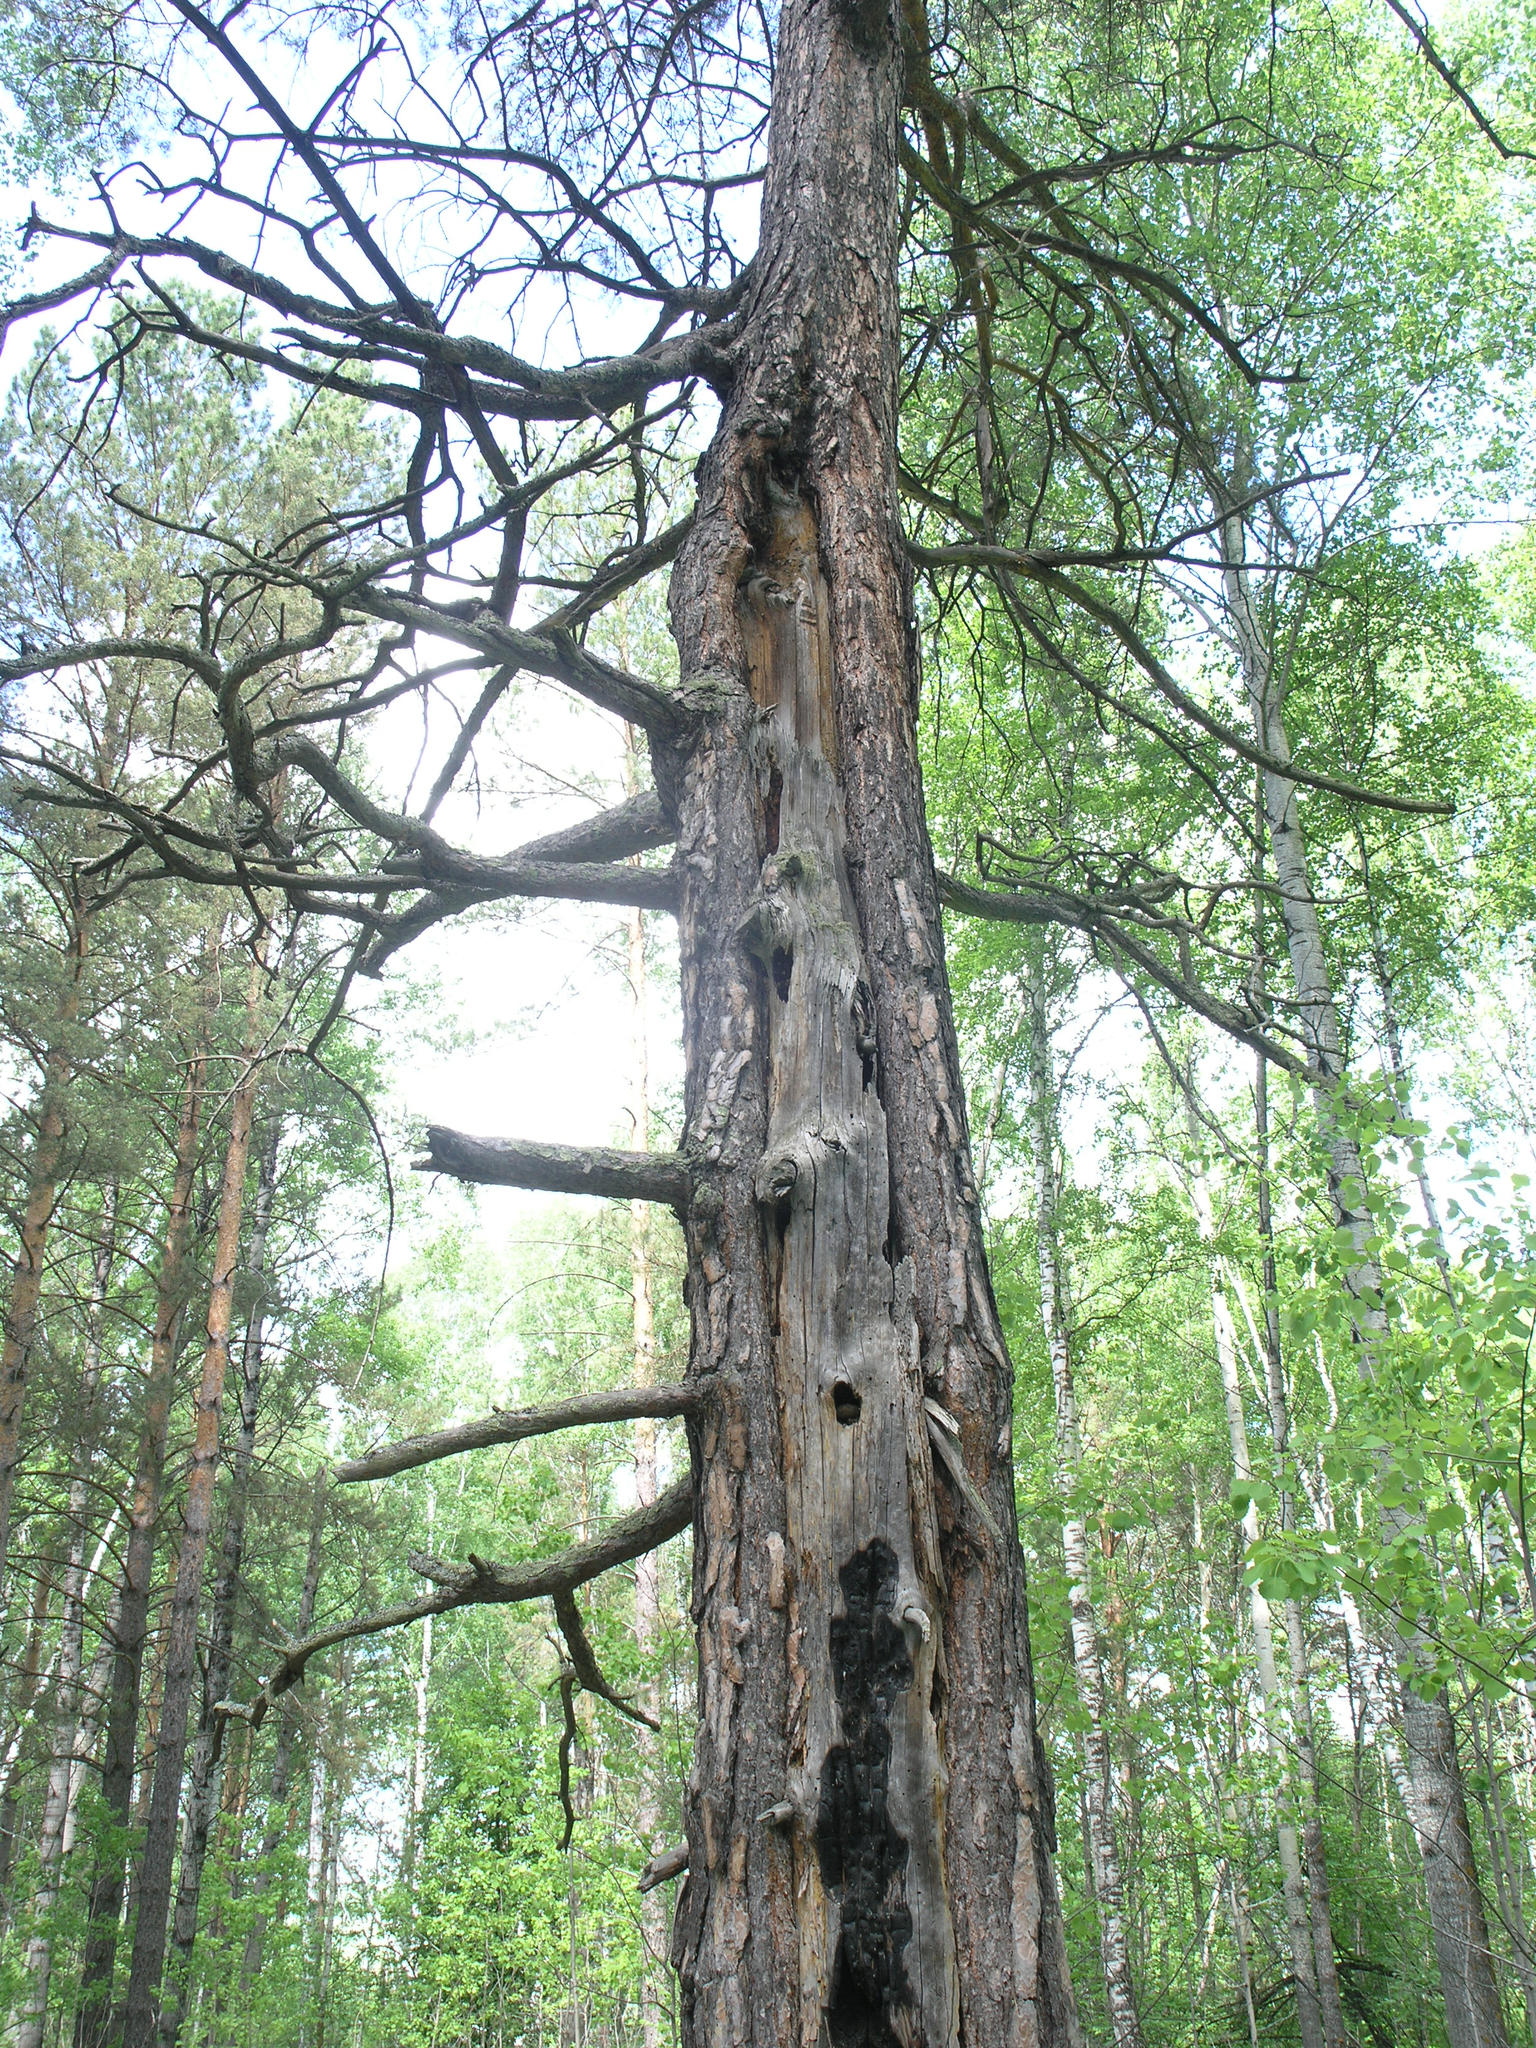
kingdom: Plantae
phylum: Tracheophyta
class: Pinopsida
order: Pinales
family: Pinaceae
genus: Pinus
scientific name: Pinus sylvestris
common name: Scots pine
